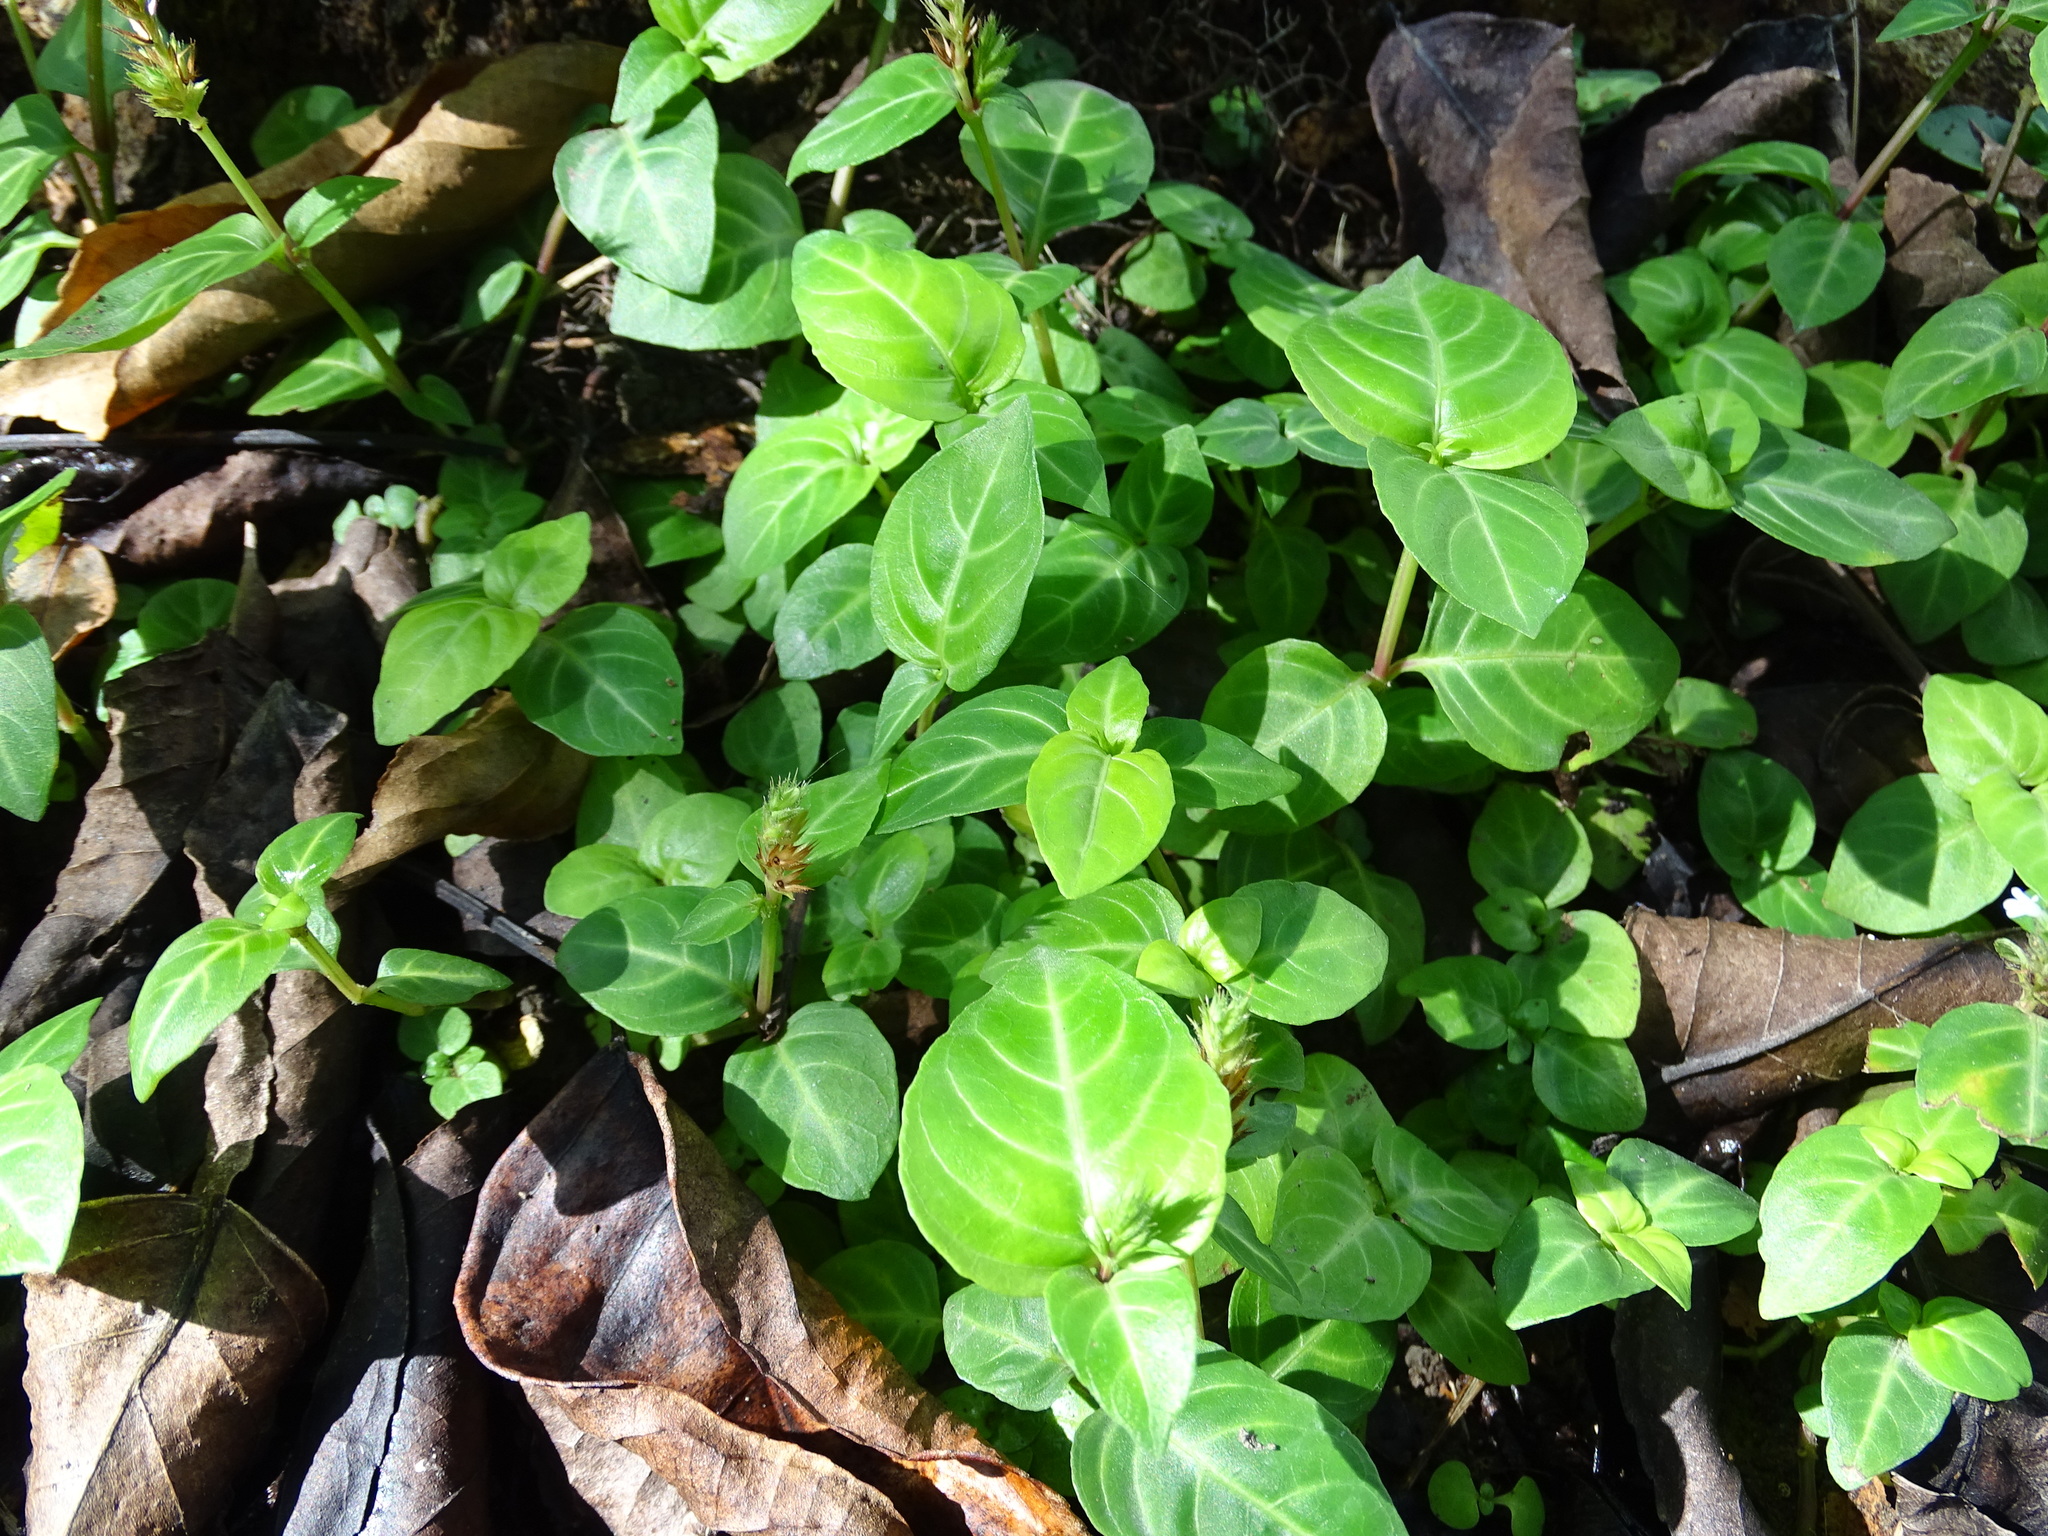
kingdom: Plantae
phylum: Tracheophyta
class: Magnoliopsida
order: Lamiales
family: Acanthaceae
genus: Lepidagathis
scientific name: Lepidagathis inaequalis
